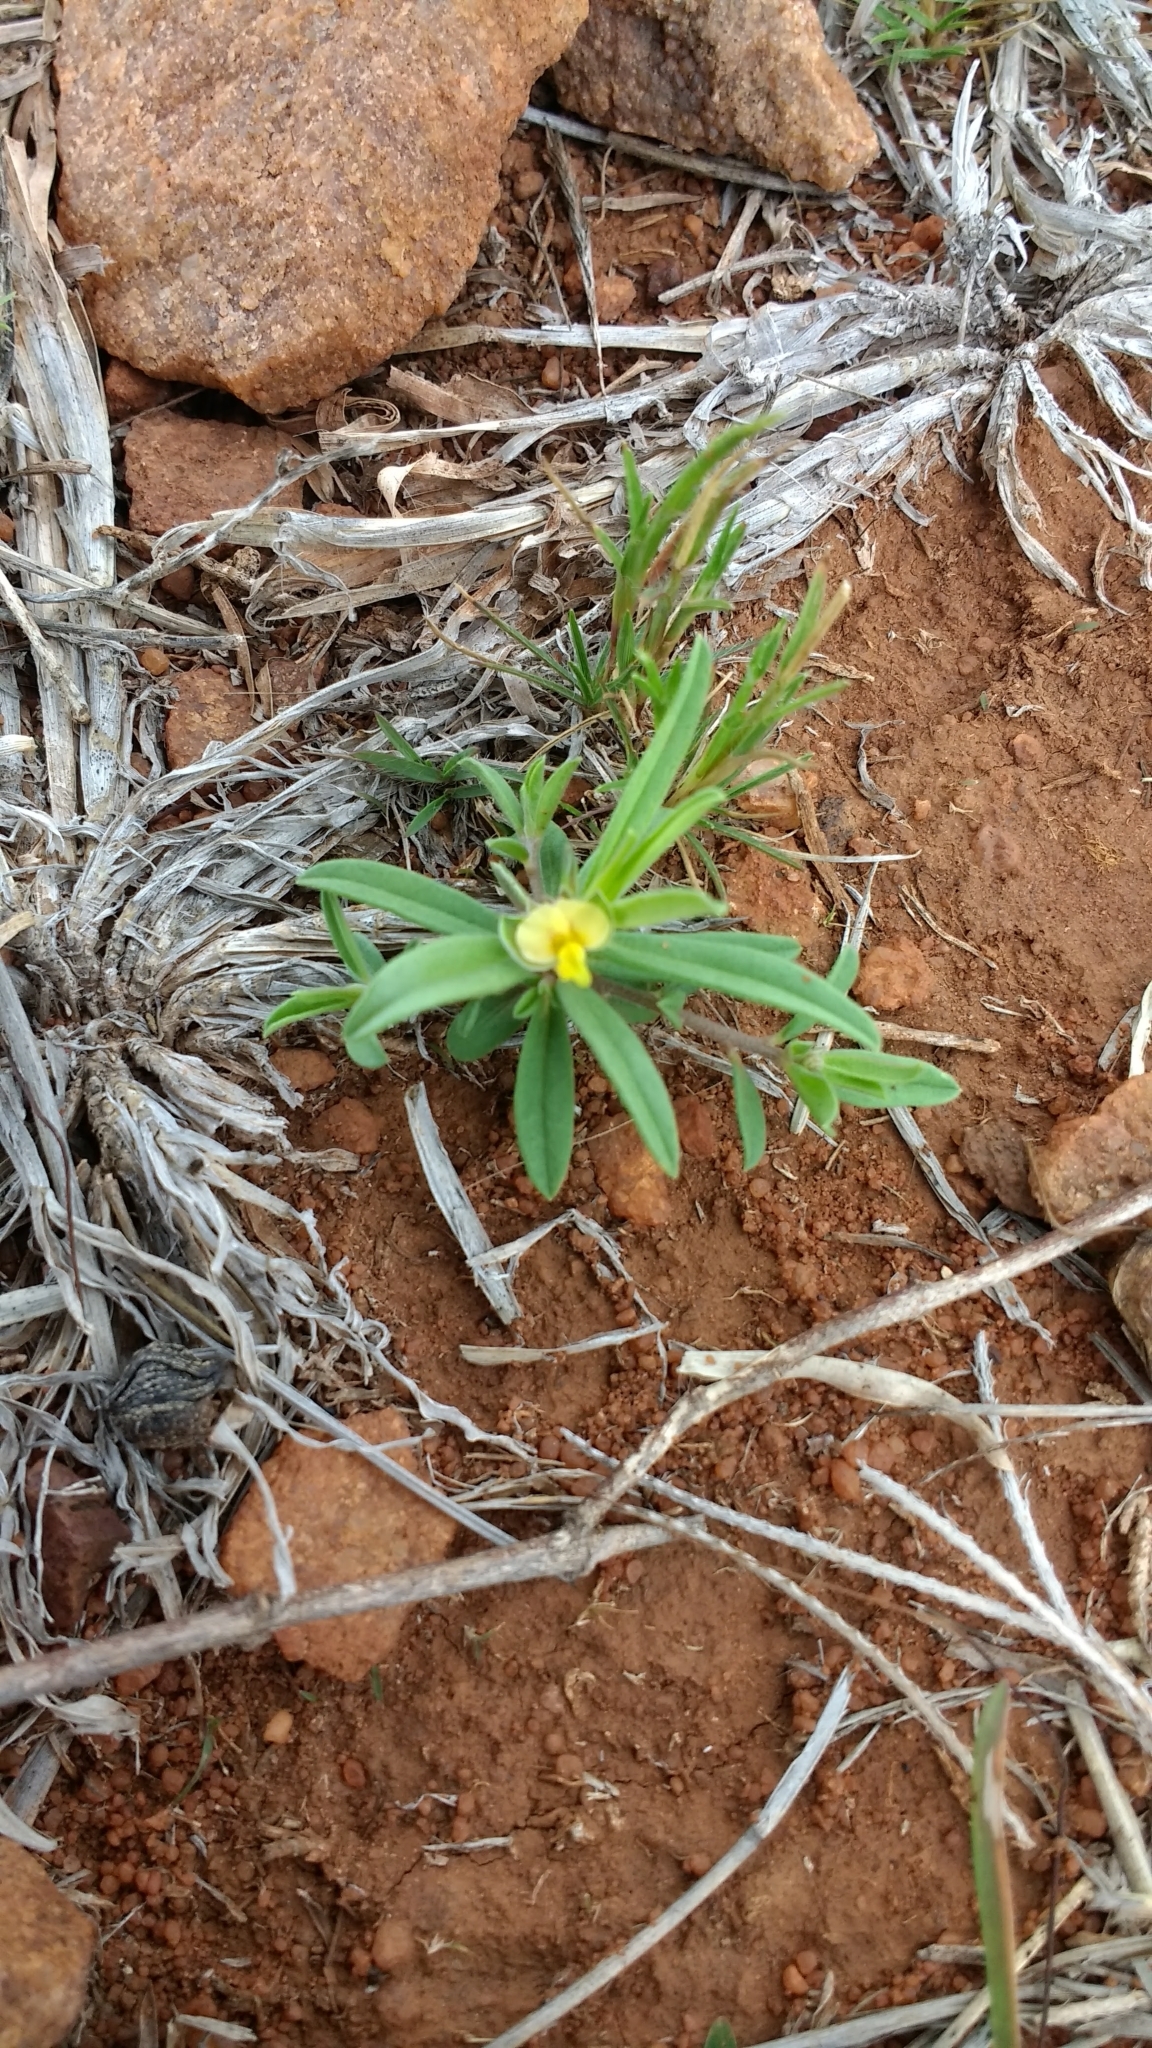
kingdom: Plantae
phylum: Tracheophyta
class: Magnoliopsida
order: Fabales
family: Polygalaceae
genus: Polygala
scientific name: Polygala arvensis
